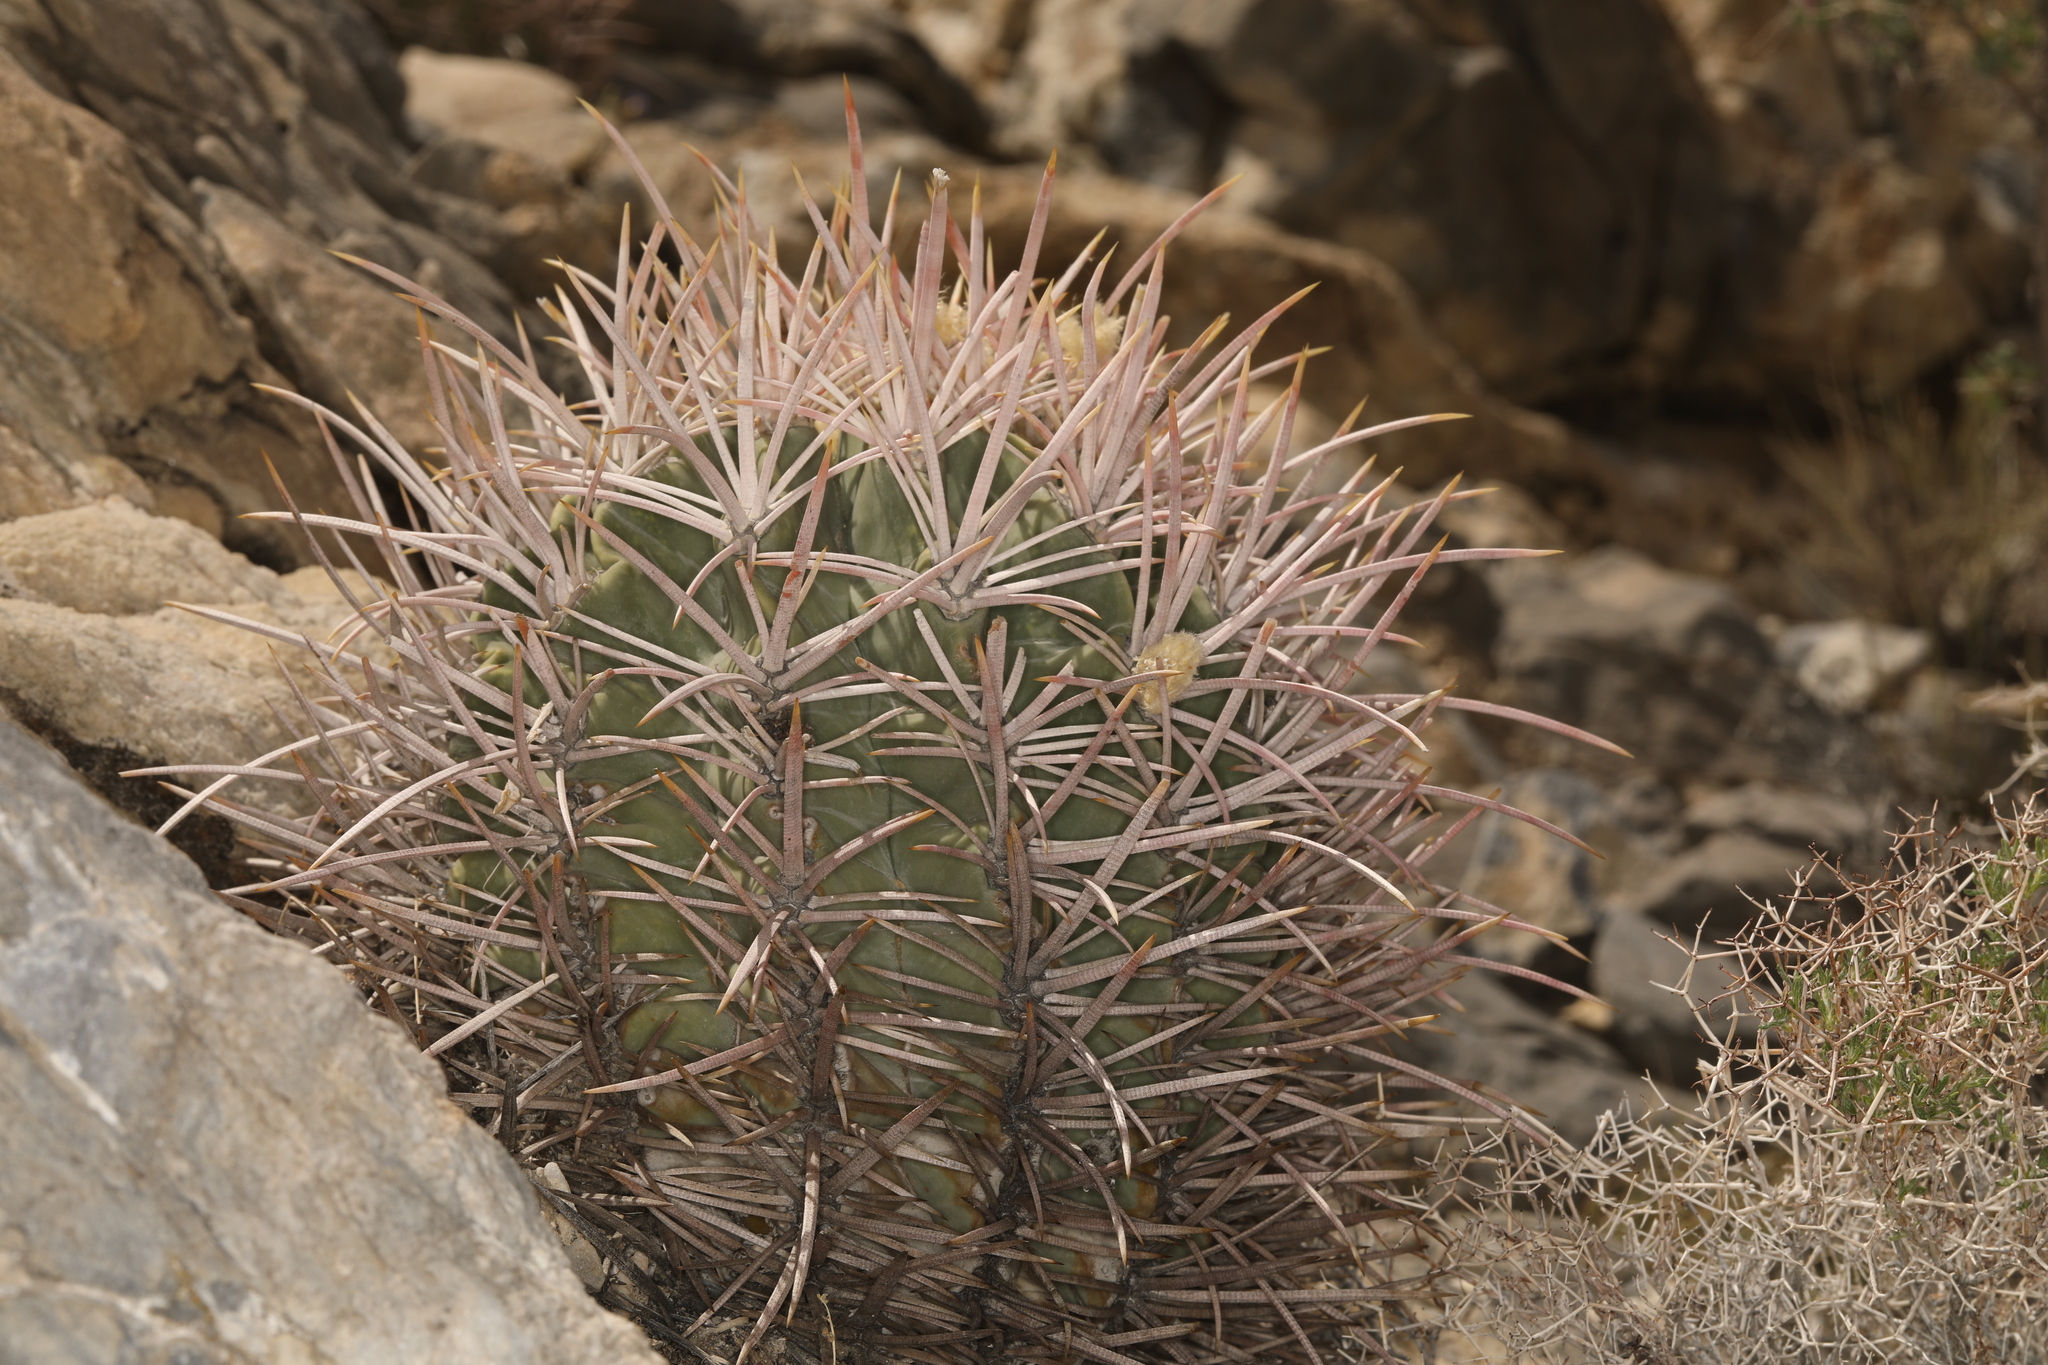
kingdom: Plantae
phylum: Tracheophyta
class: Magnoliopsida
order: Caryophyllales
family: Cactaceae
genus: Echinocactus
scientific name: Echinocactus polycephalus
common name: Cottontop cactus
